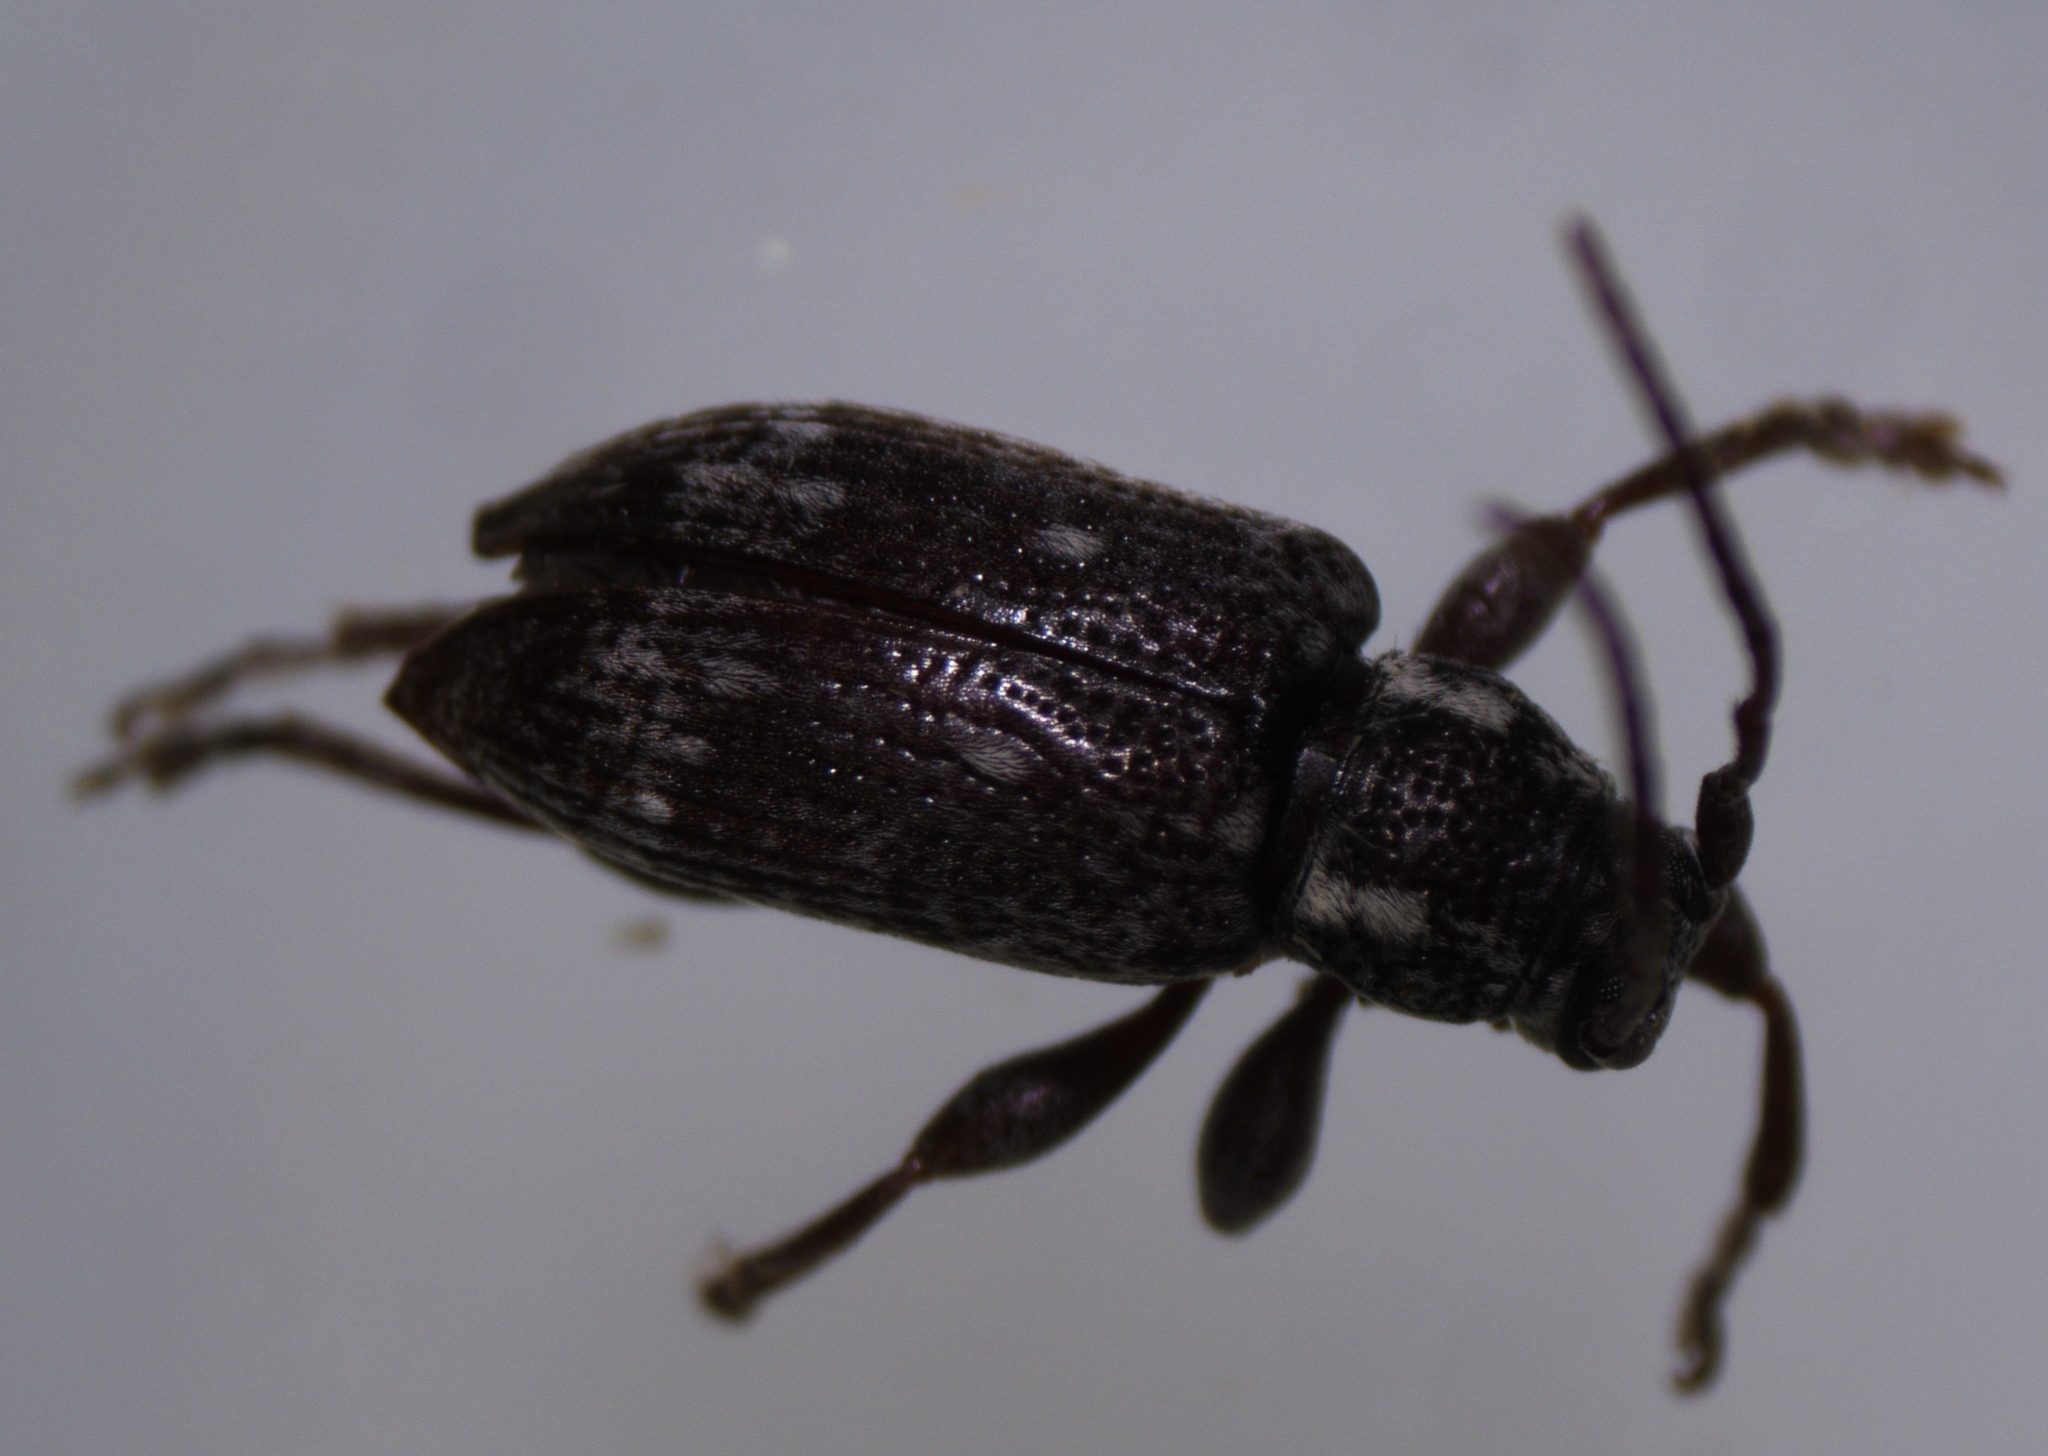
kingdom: Animalia
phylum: Arthropoda
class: Insecta
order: Coleoptera
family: Cerambycidae
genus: Oopsis
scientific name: Oopsis nutator
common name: Oopsis long-horned beetle
